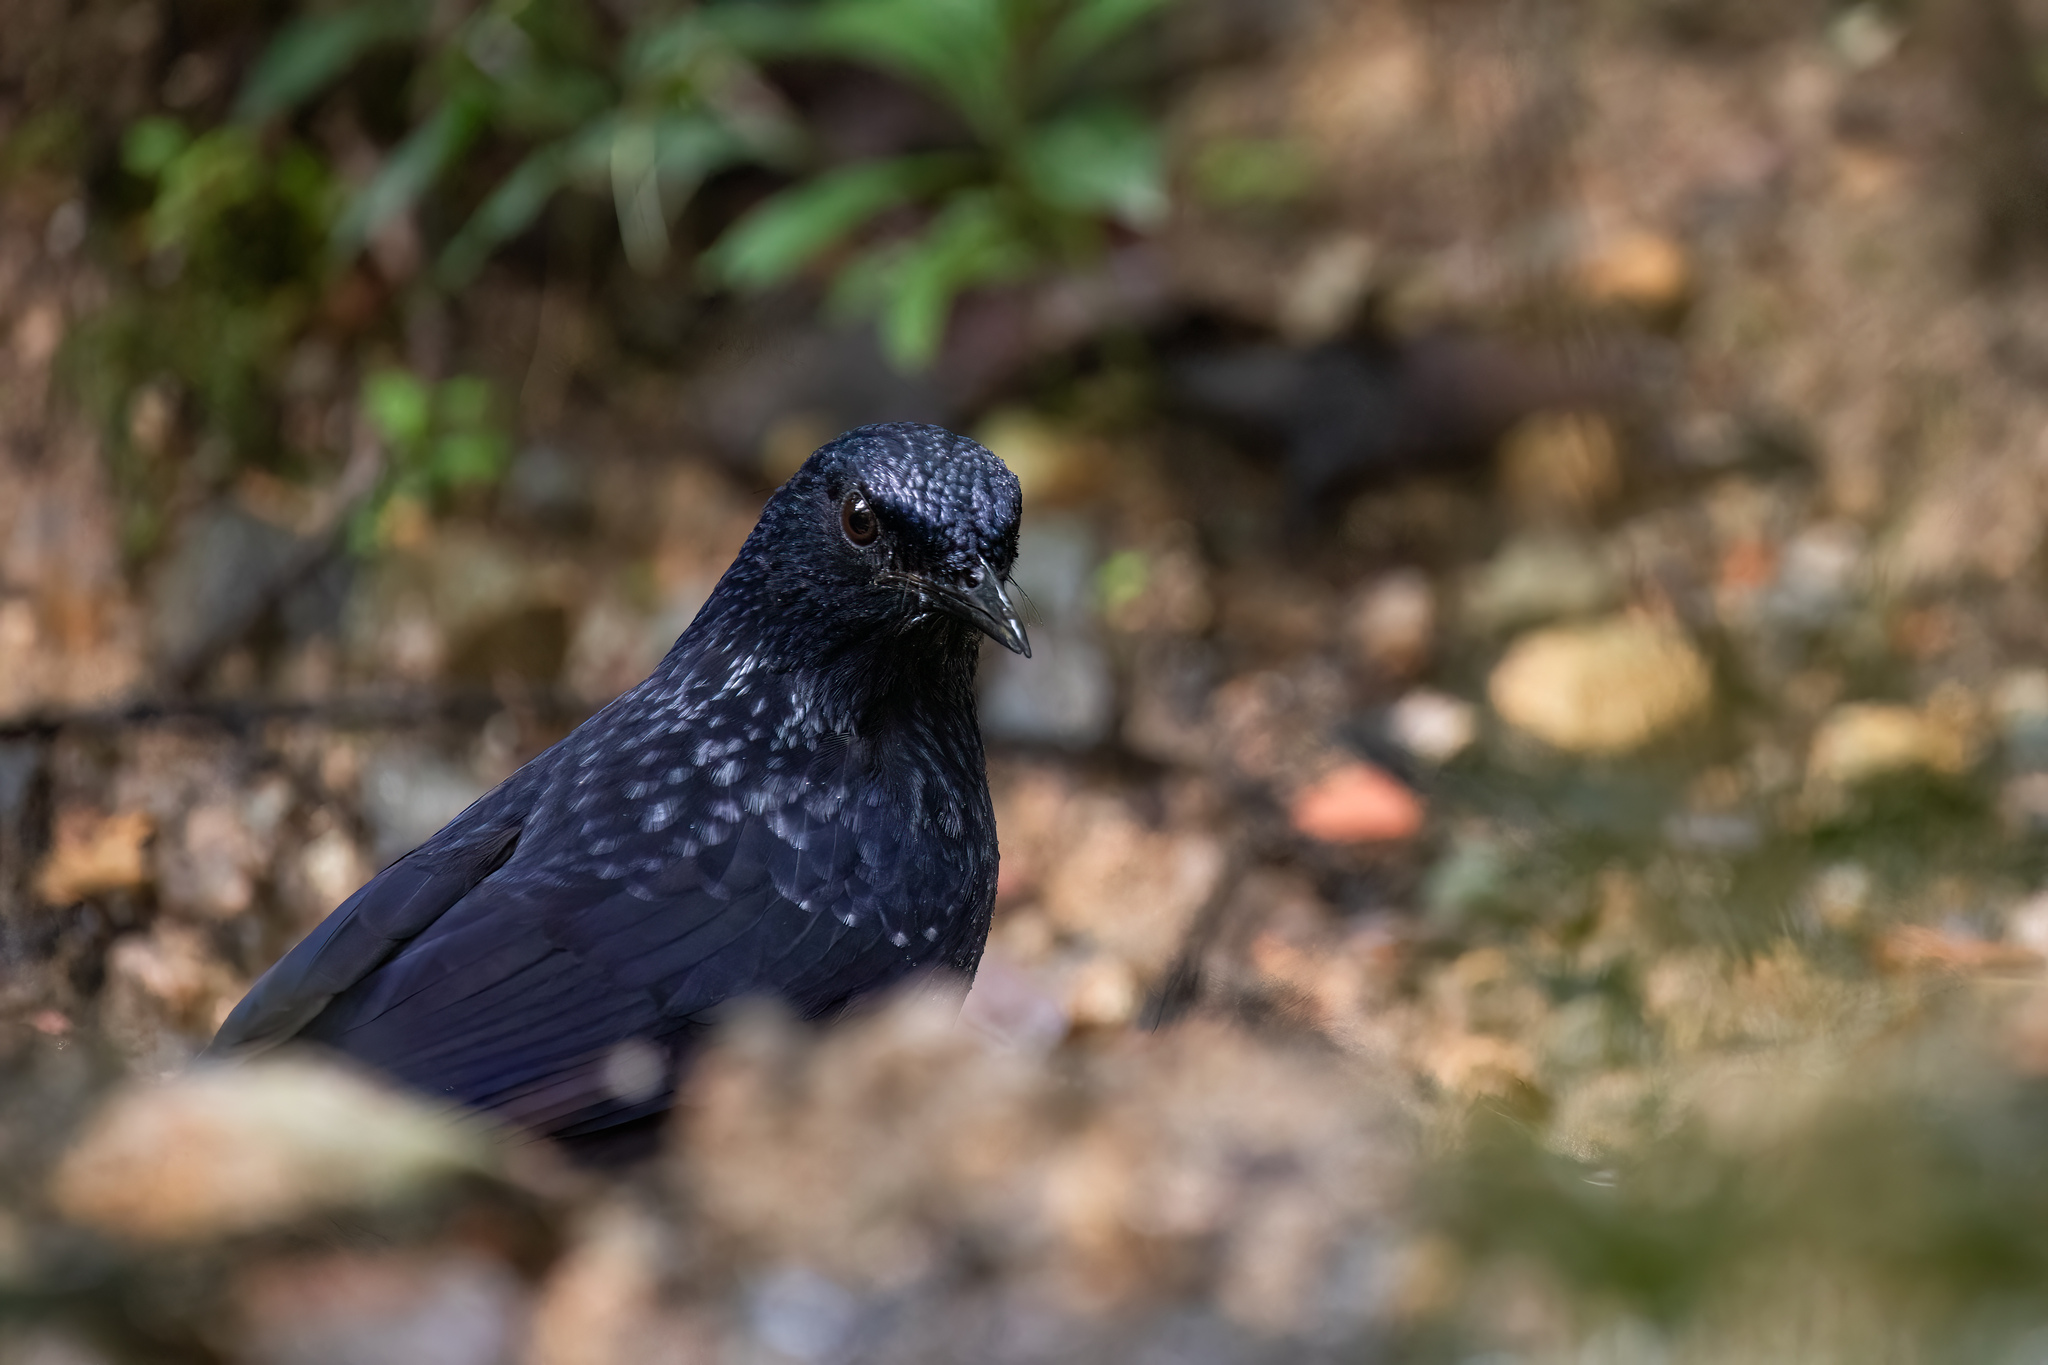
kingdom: Animalia
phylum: Chordata
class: Aves
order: Passeriformes
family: Muscicapidae
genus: Myophonus
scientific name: Myophonus caeruleus
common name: Blue whistling-thrush
